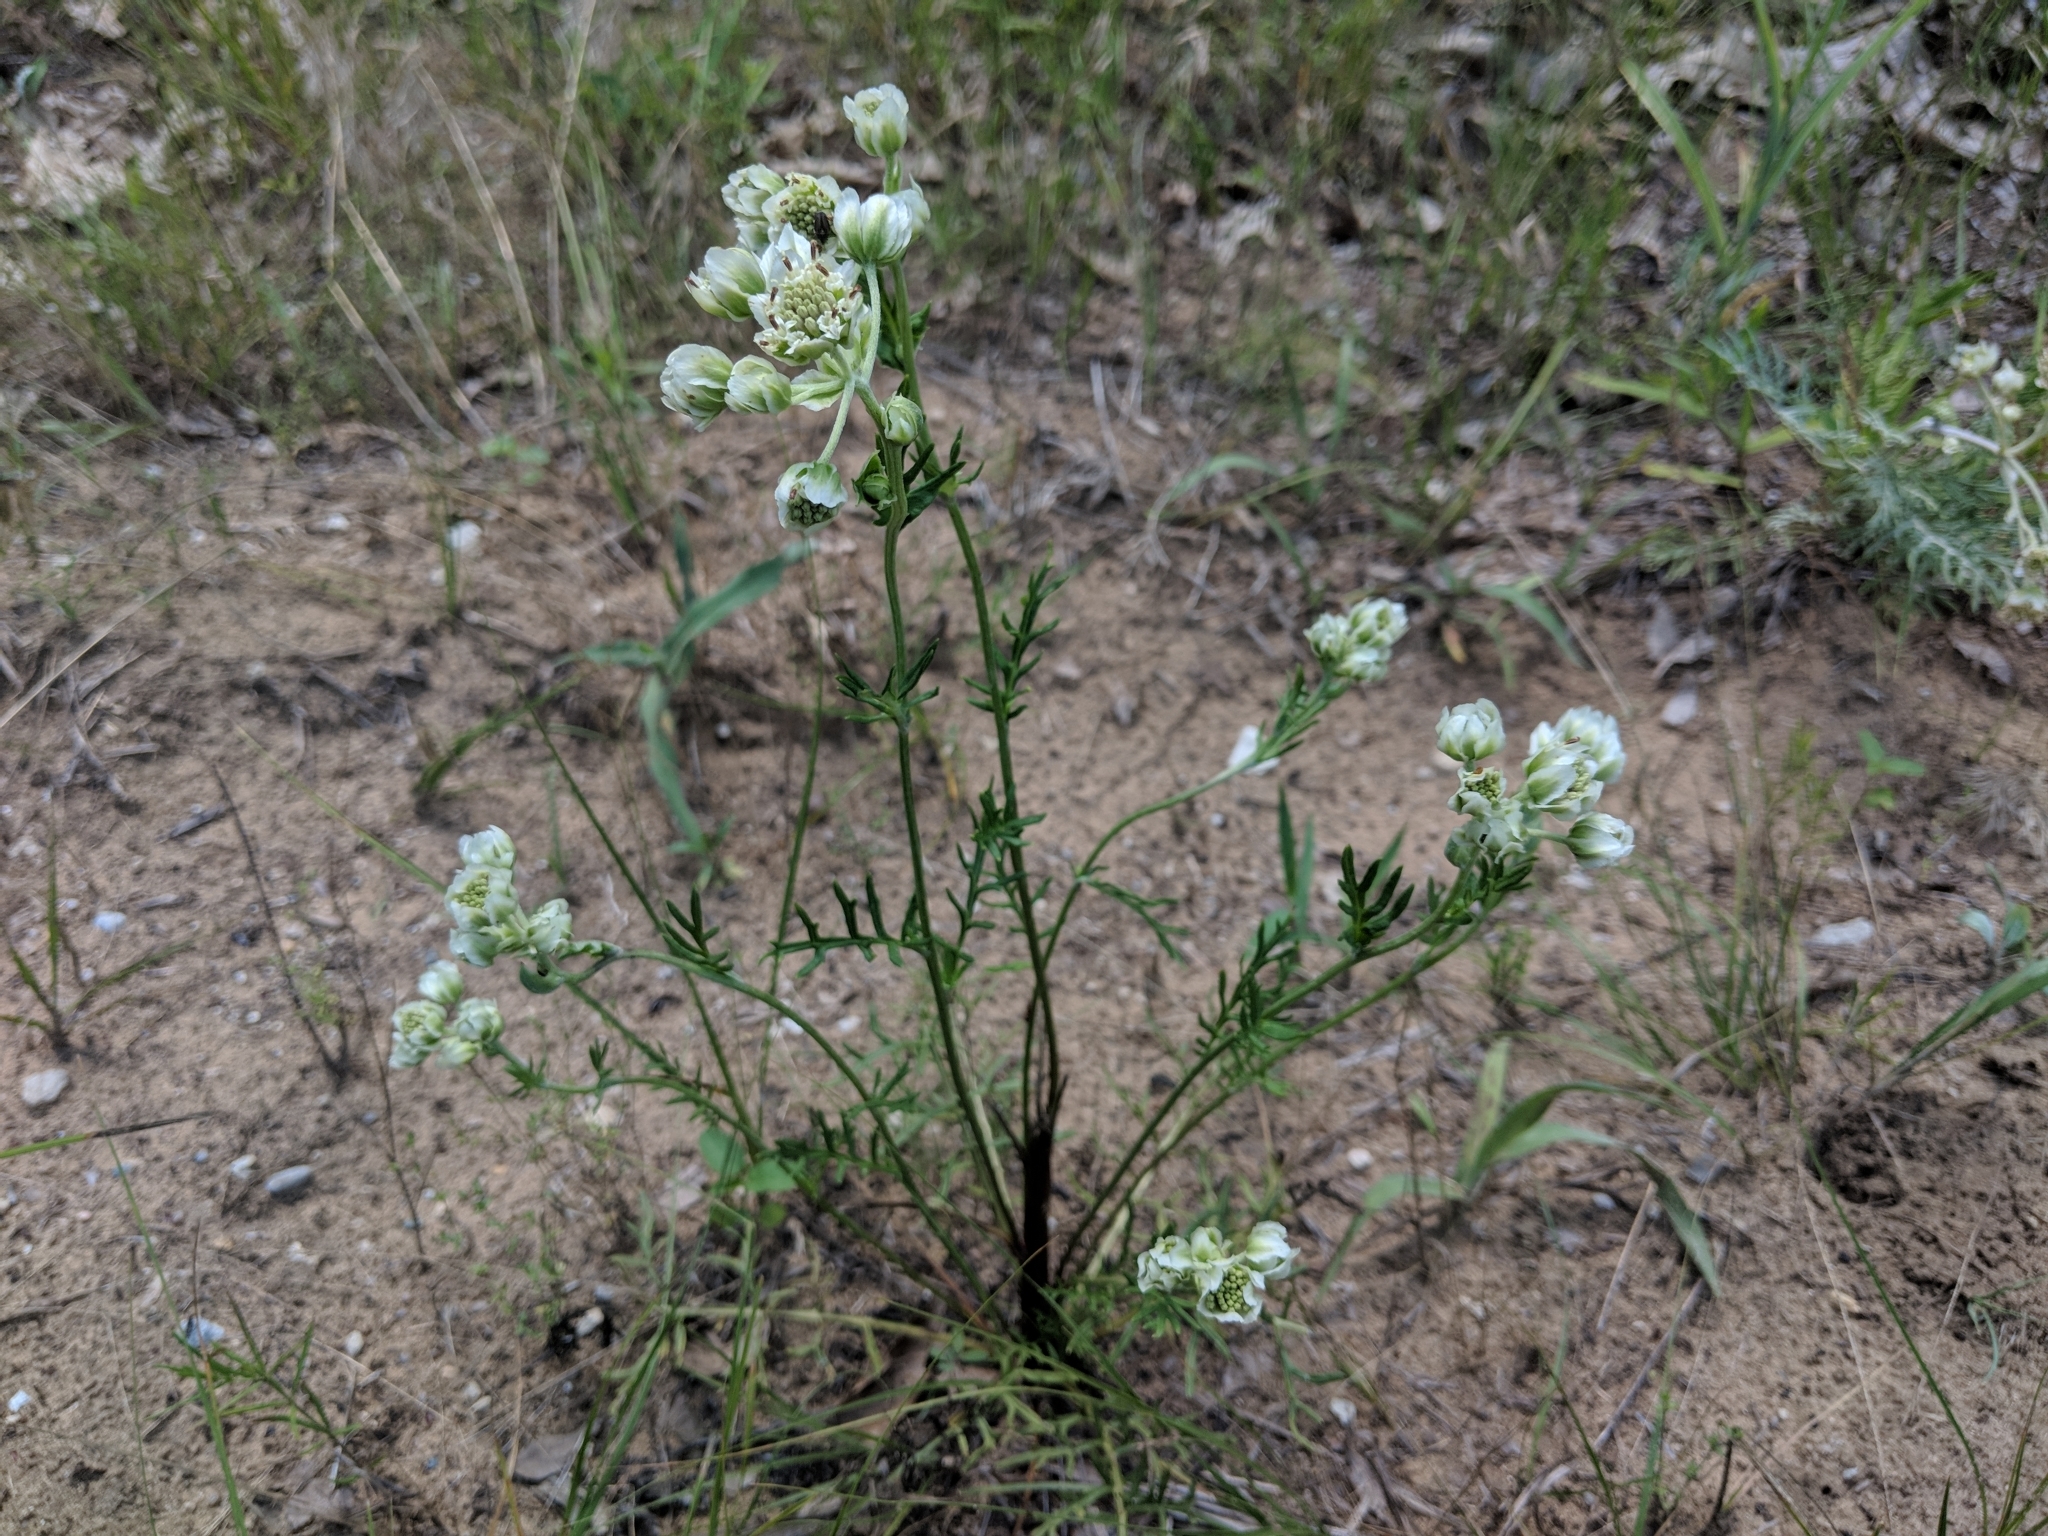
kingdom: Plantae
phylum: Tracheophyta
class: Magnoliopsida
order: Asterales
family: Asteraceae
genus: Hymenopappus
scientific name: Hymenopappus scabiosaeus
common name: Carolina woollywhite
